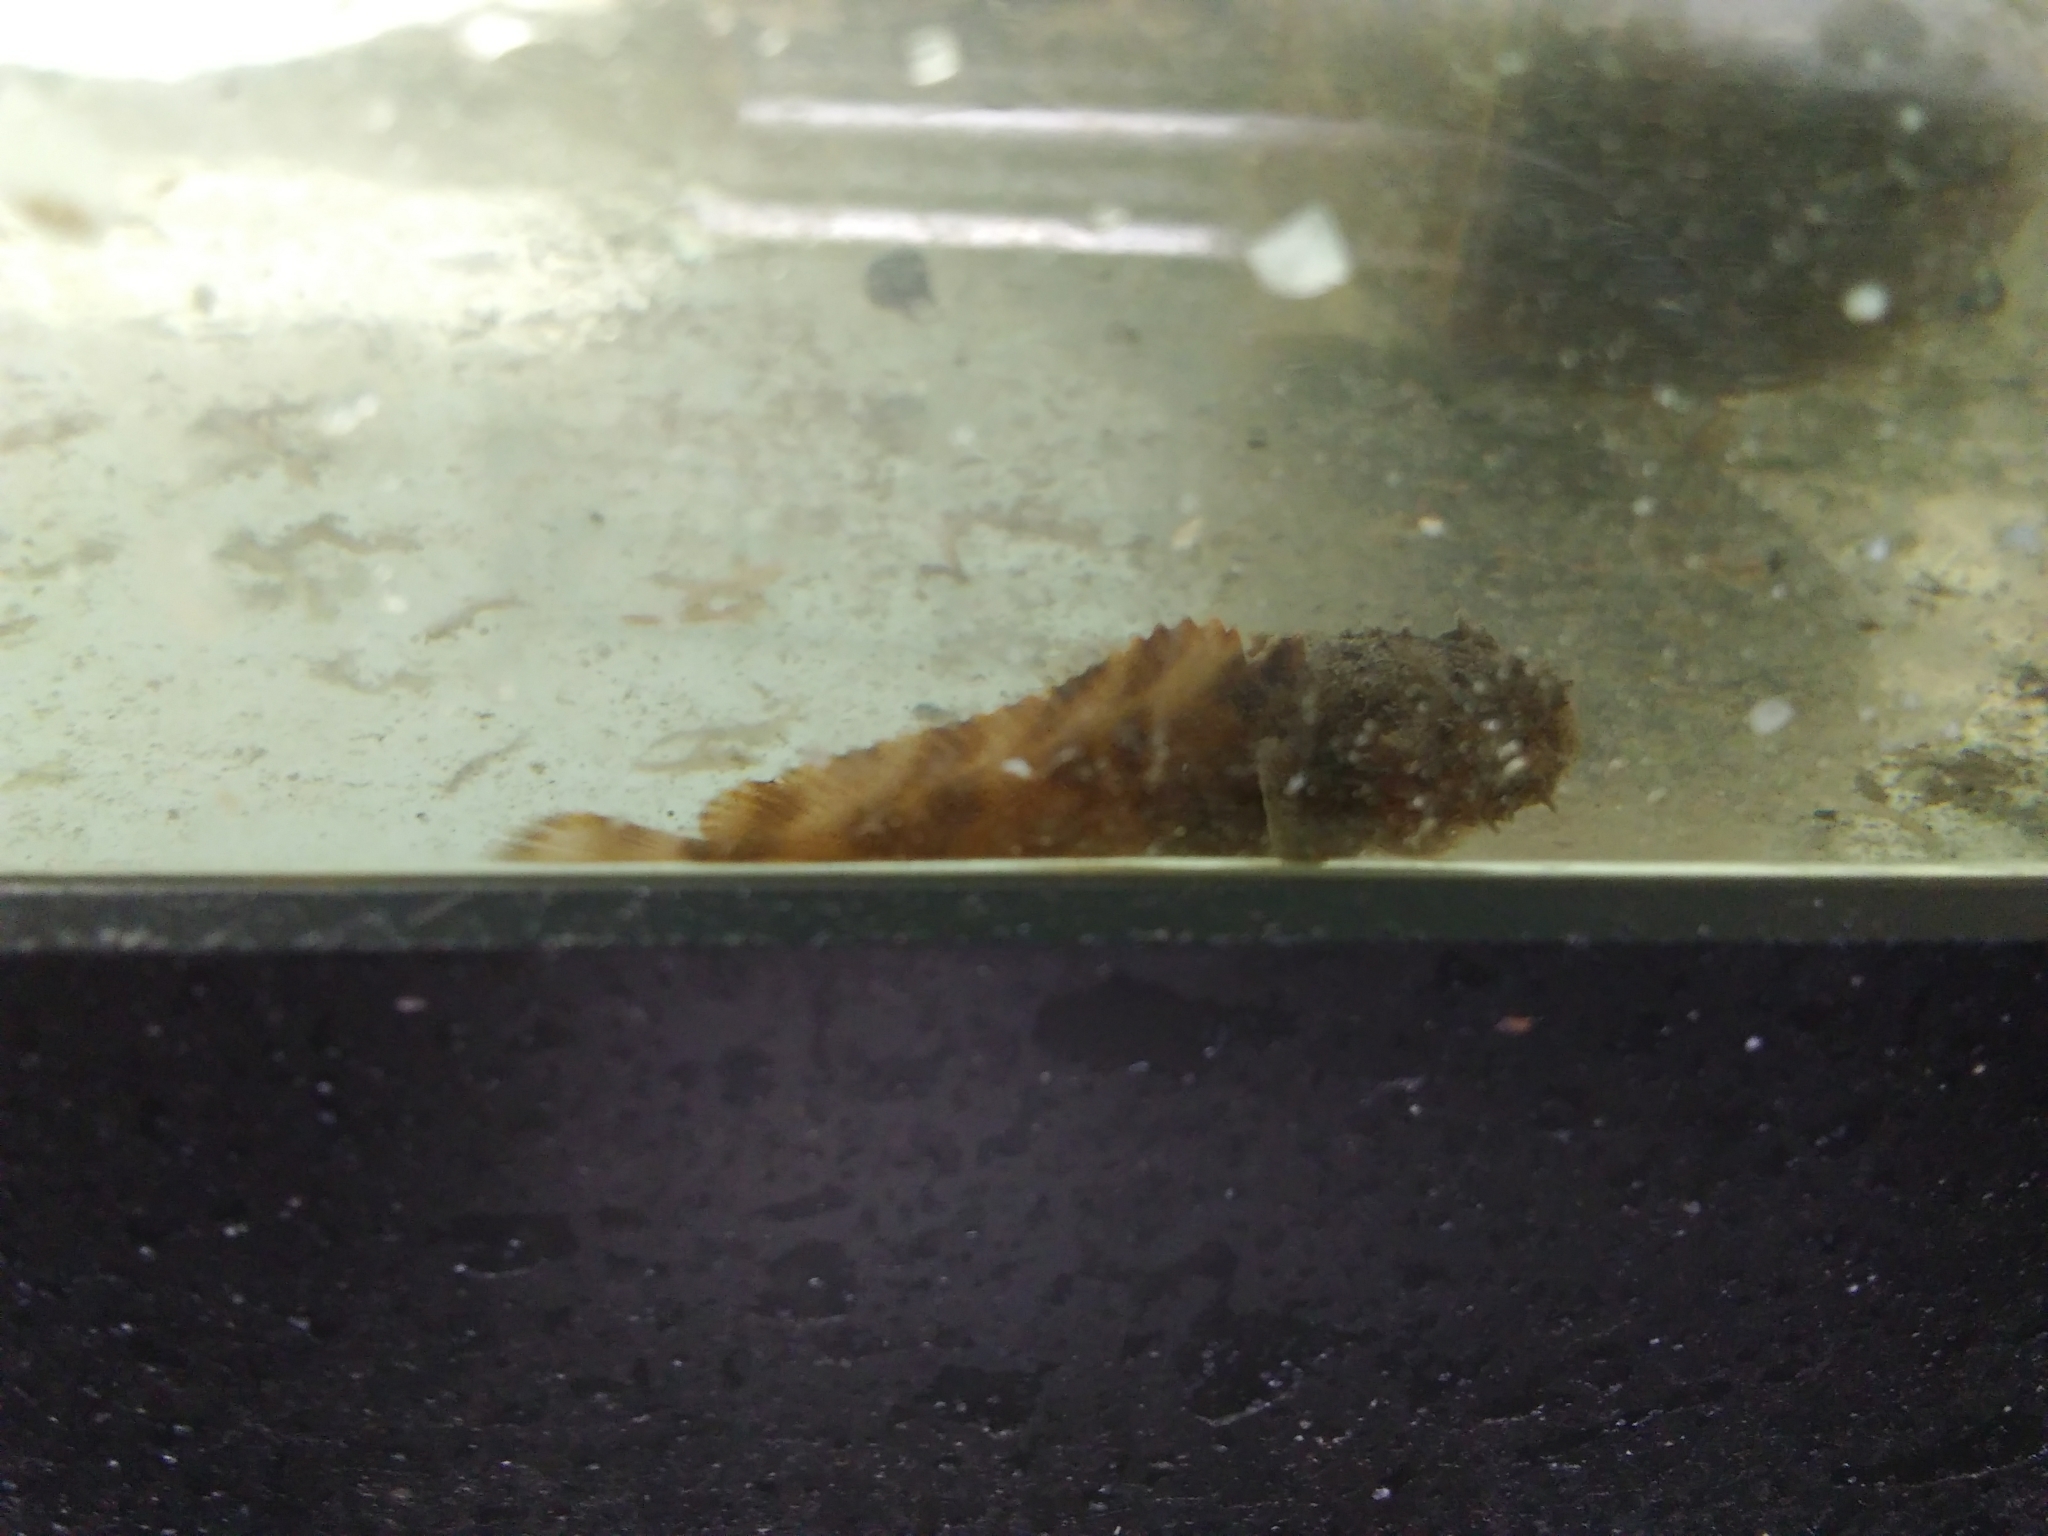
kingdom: Animalia
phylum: Chordata
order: Batrachoidiformes
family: Batrachoididae
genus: Opsanus
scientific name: Opsanus tau
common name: Oyster toadfish
